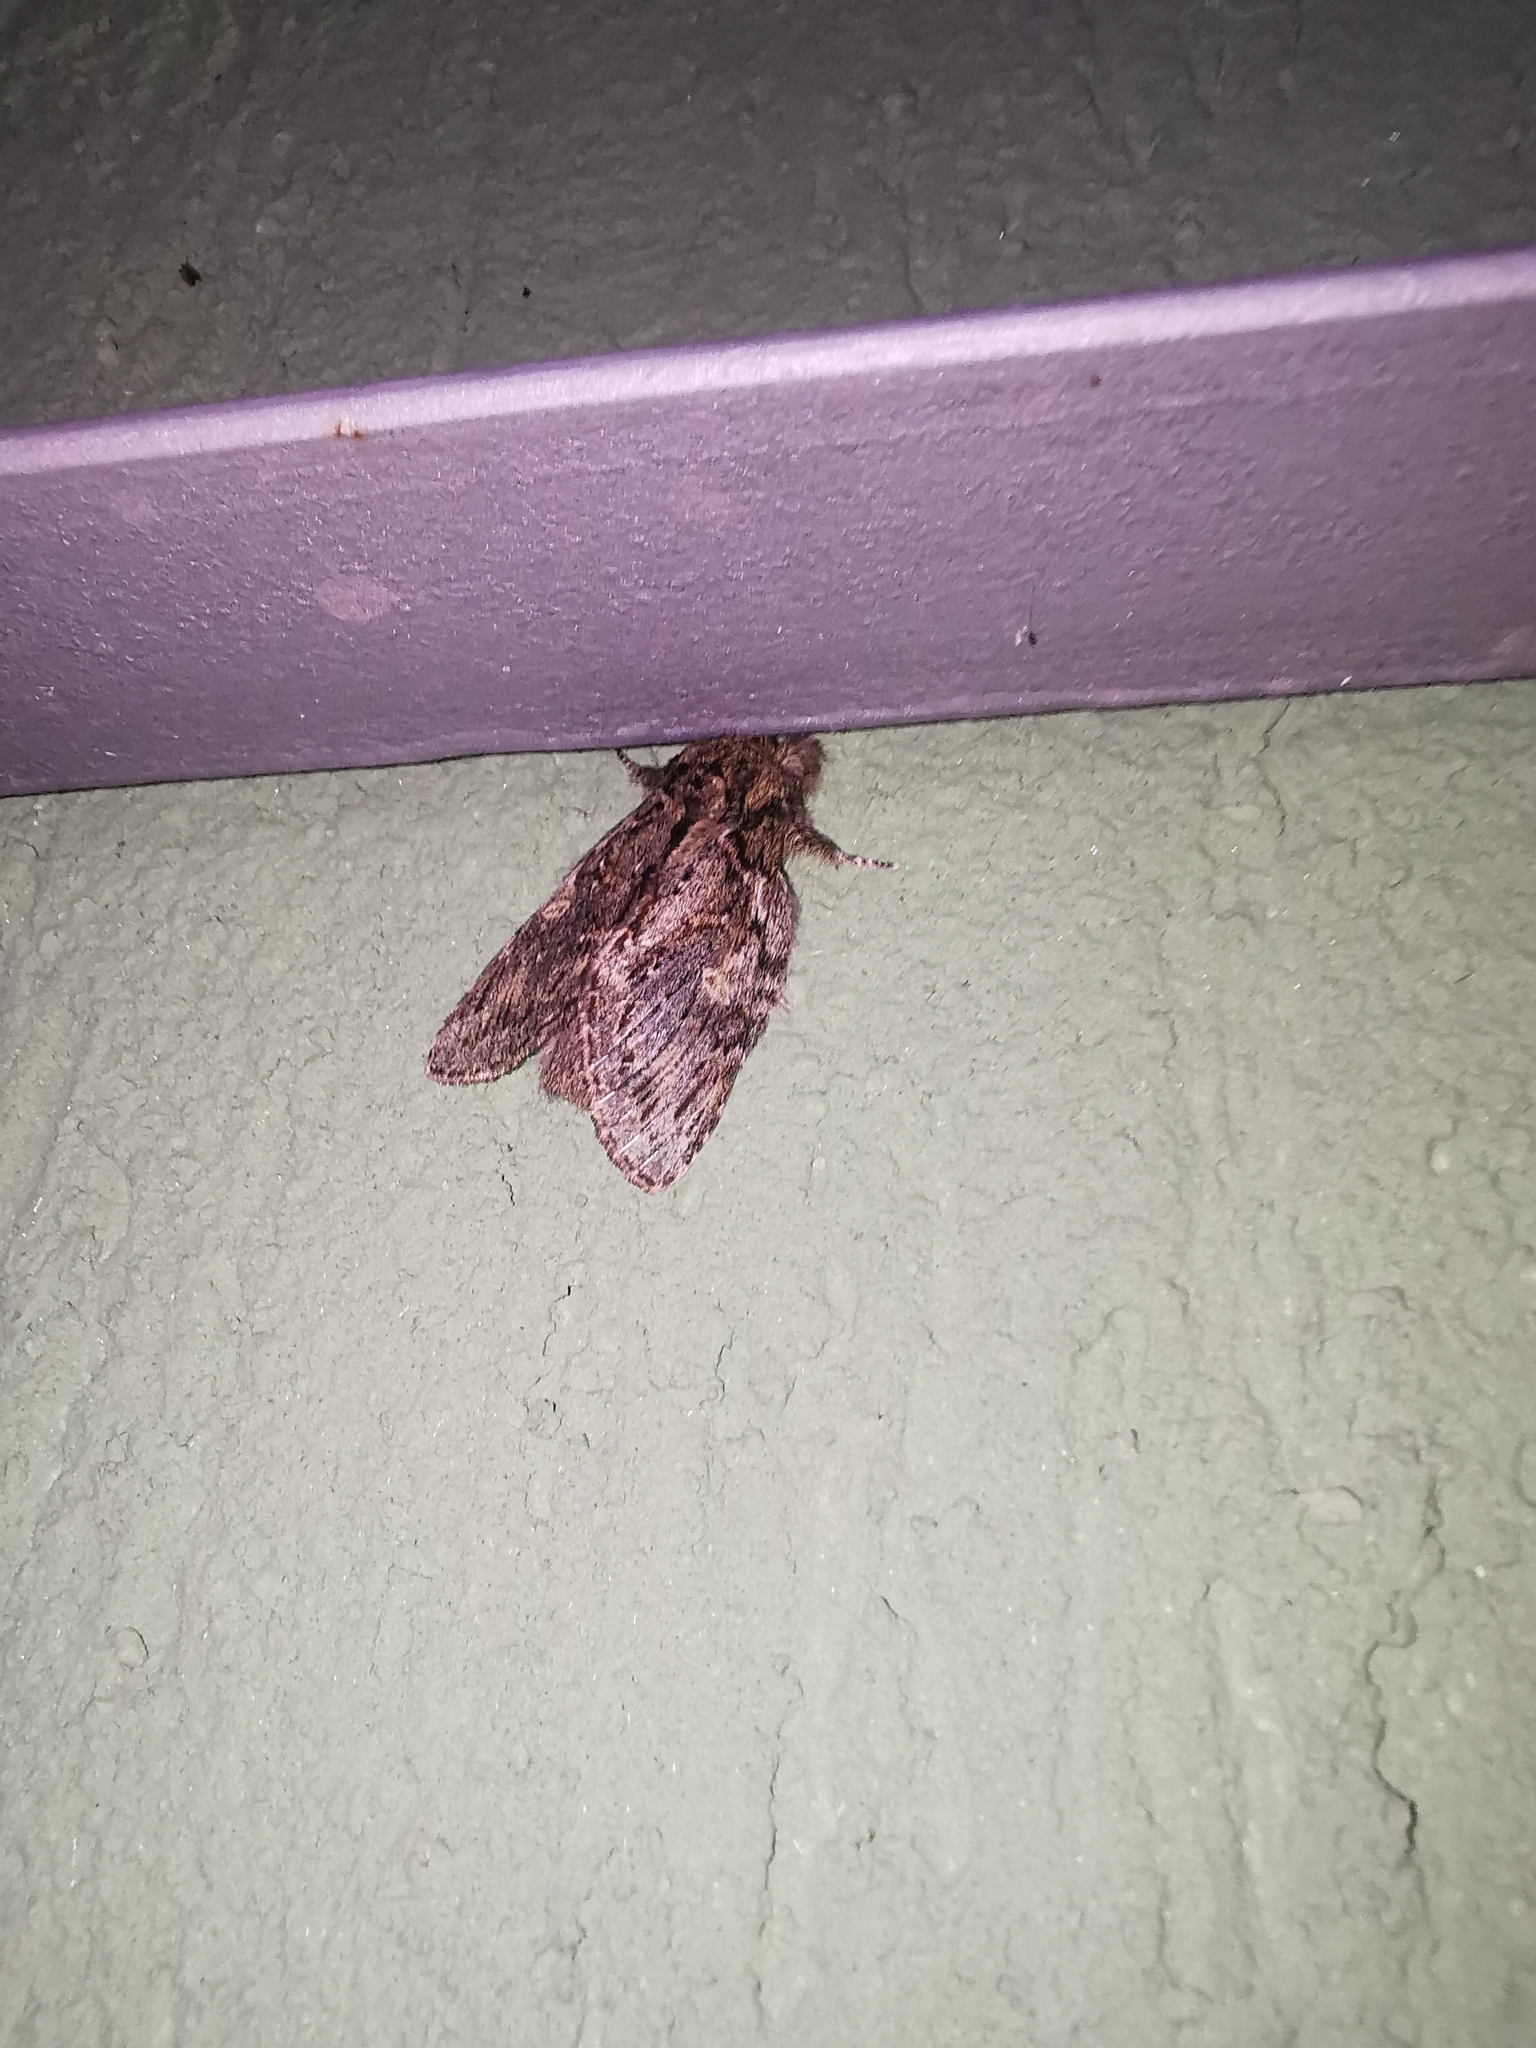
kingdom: Animalia
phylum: Arthropoda
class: Insecta
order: Lepidoptera
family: Notodontidae
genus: Peridea
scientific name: Peridea anceps
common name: Great prominent
